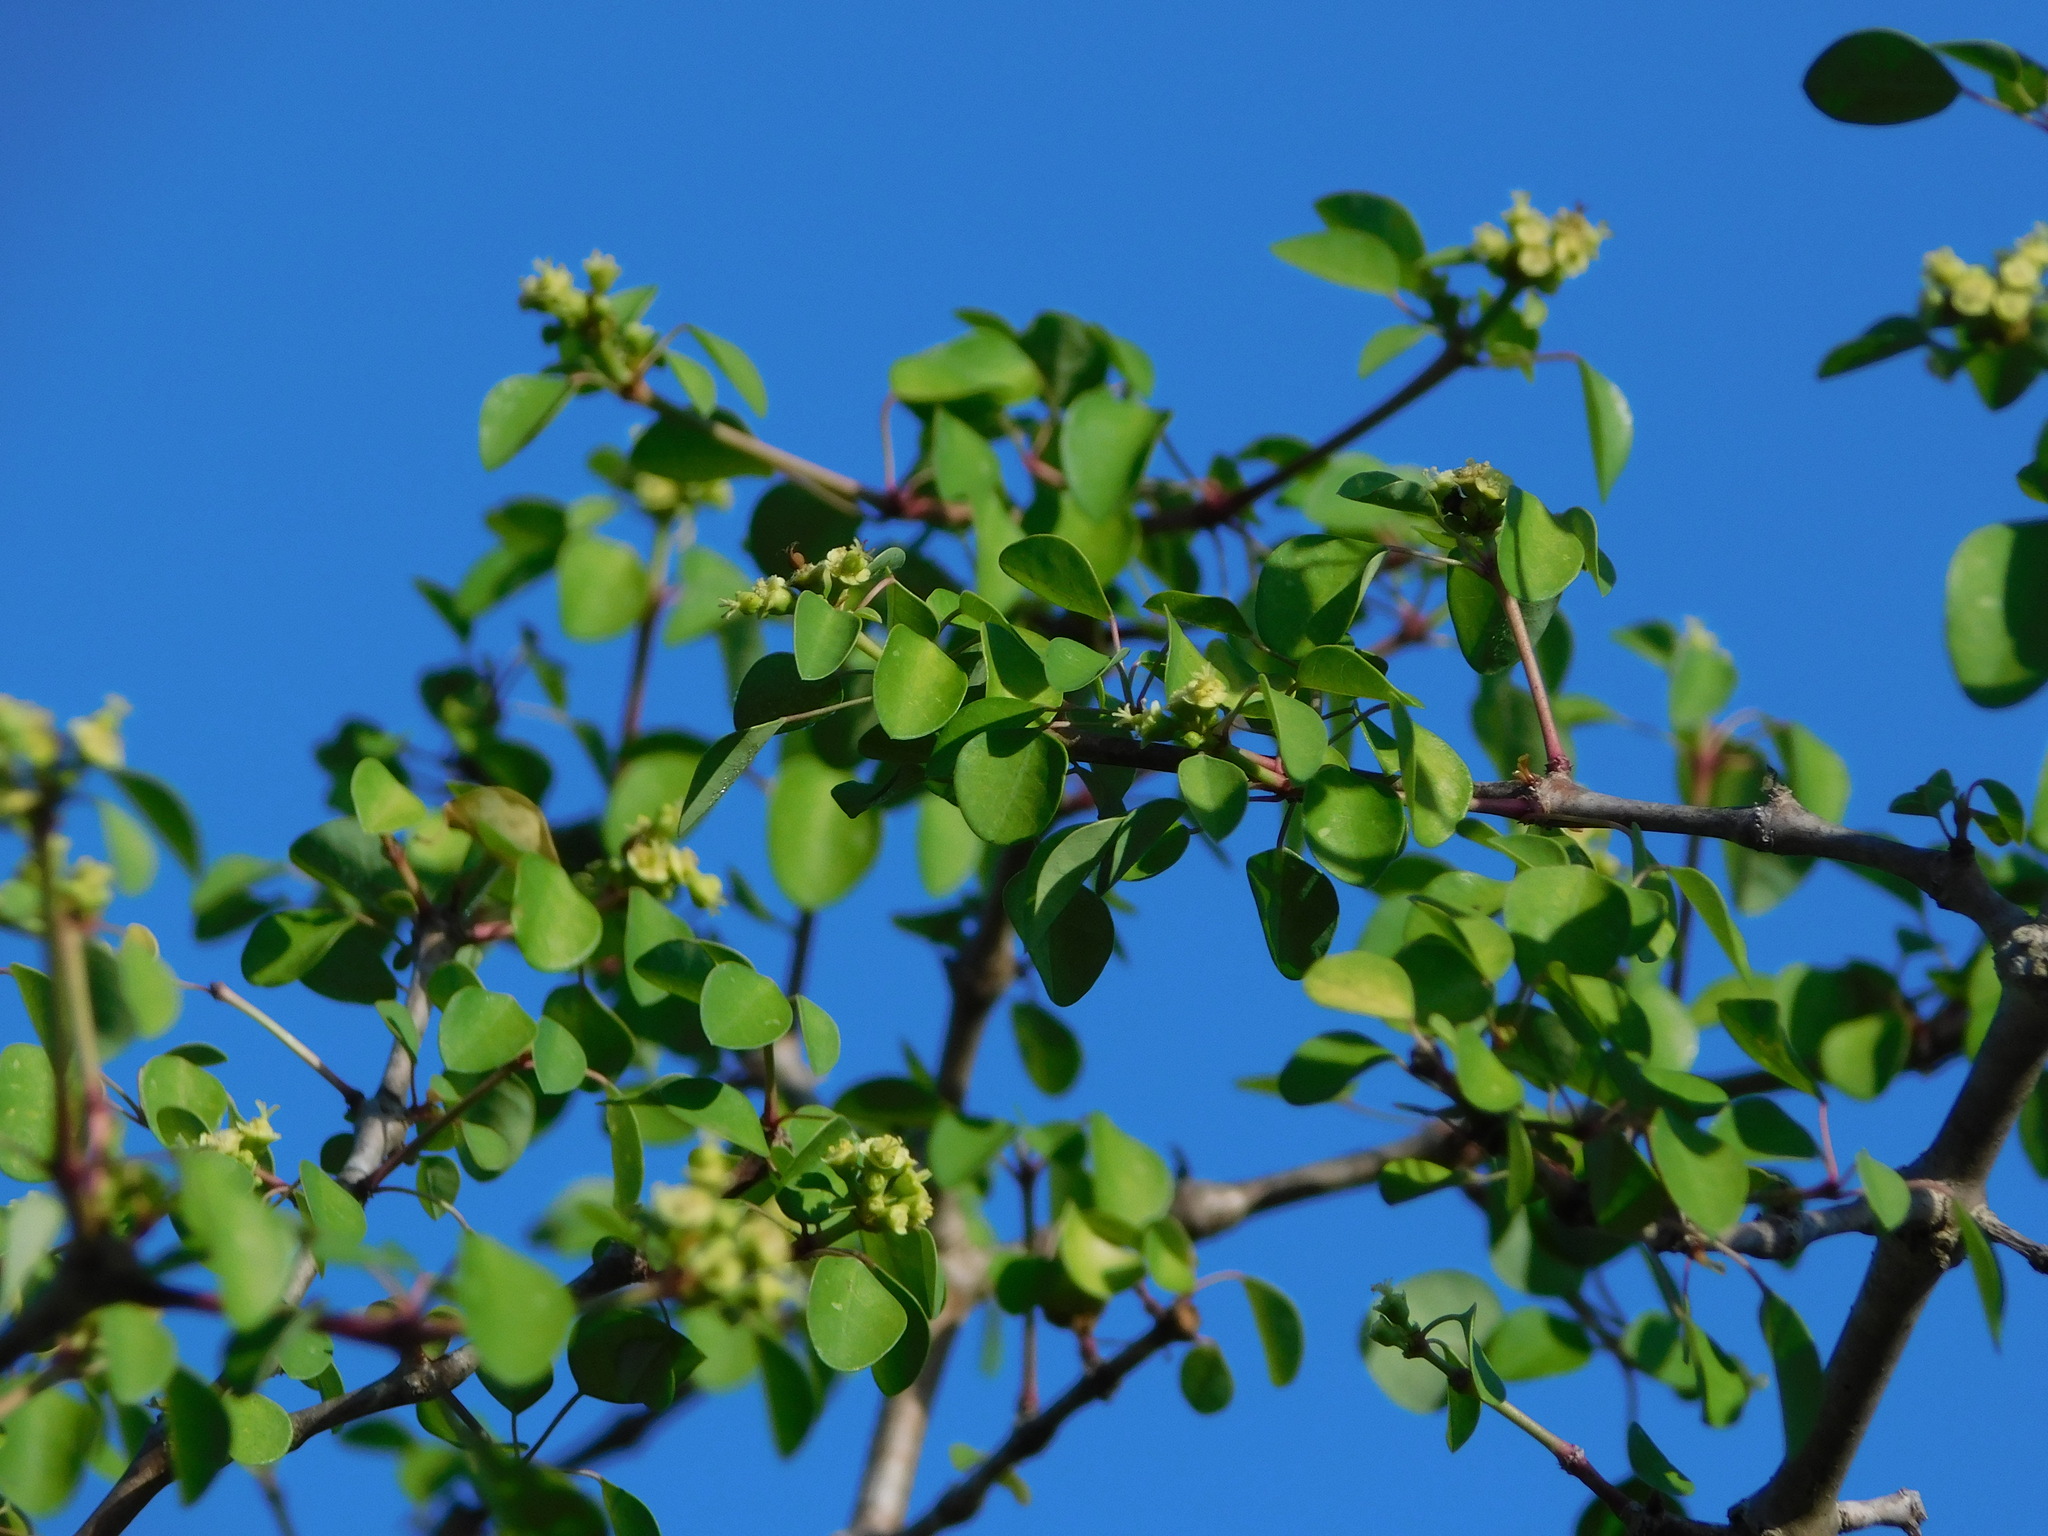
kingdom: Plantae
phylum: Tracheophyta
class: Magnoliopsida
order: Malpighiales
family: Euphorbiaceae
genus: Euphorbia
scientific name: Euphorbia schlechtendalii
